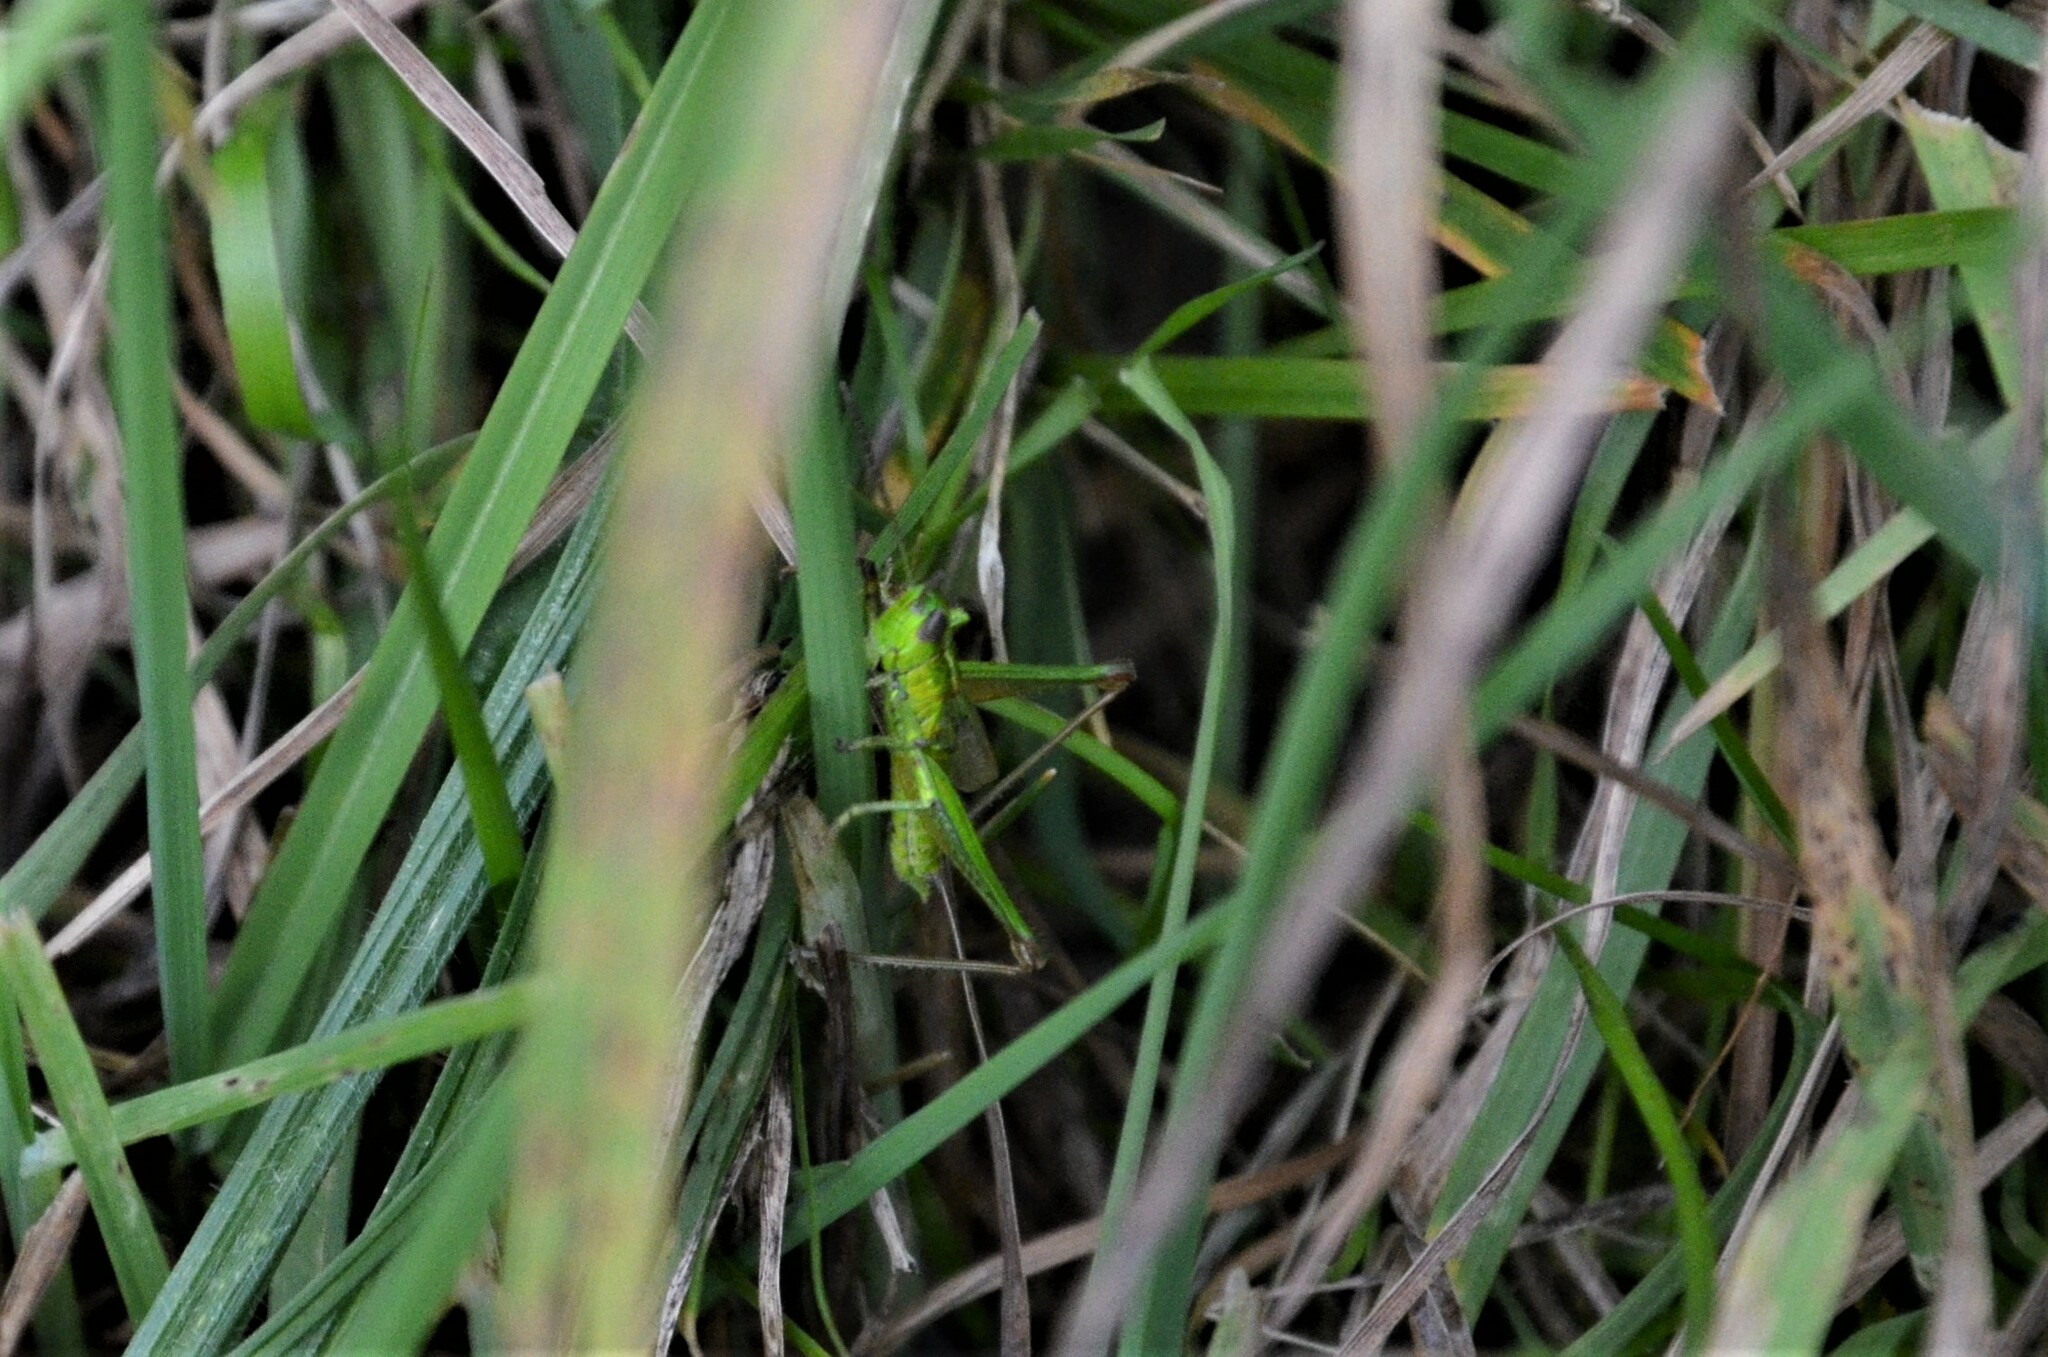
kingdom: Animalia
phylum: Arthropoda
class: Insecta
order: Orthoptera
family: Acrididae
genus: Euthystira
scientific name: Euthystira brachyptera
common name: Small gold grasshopper
